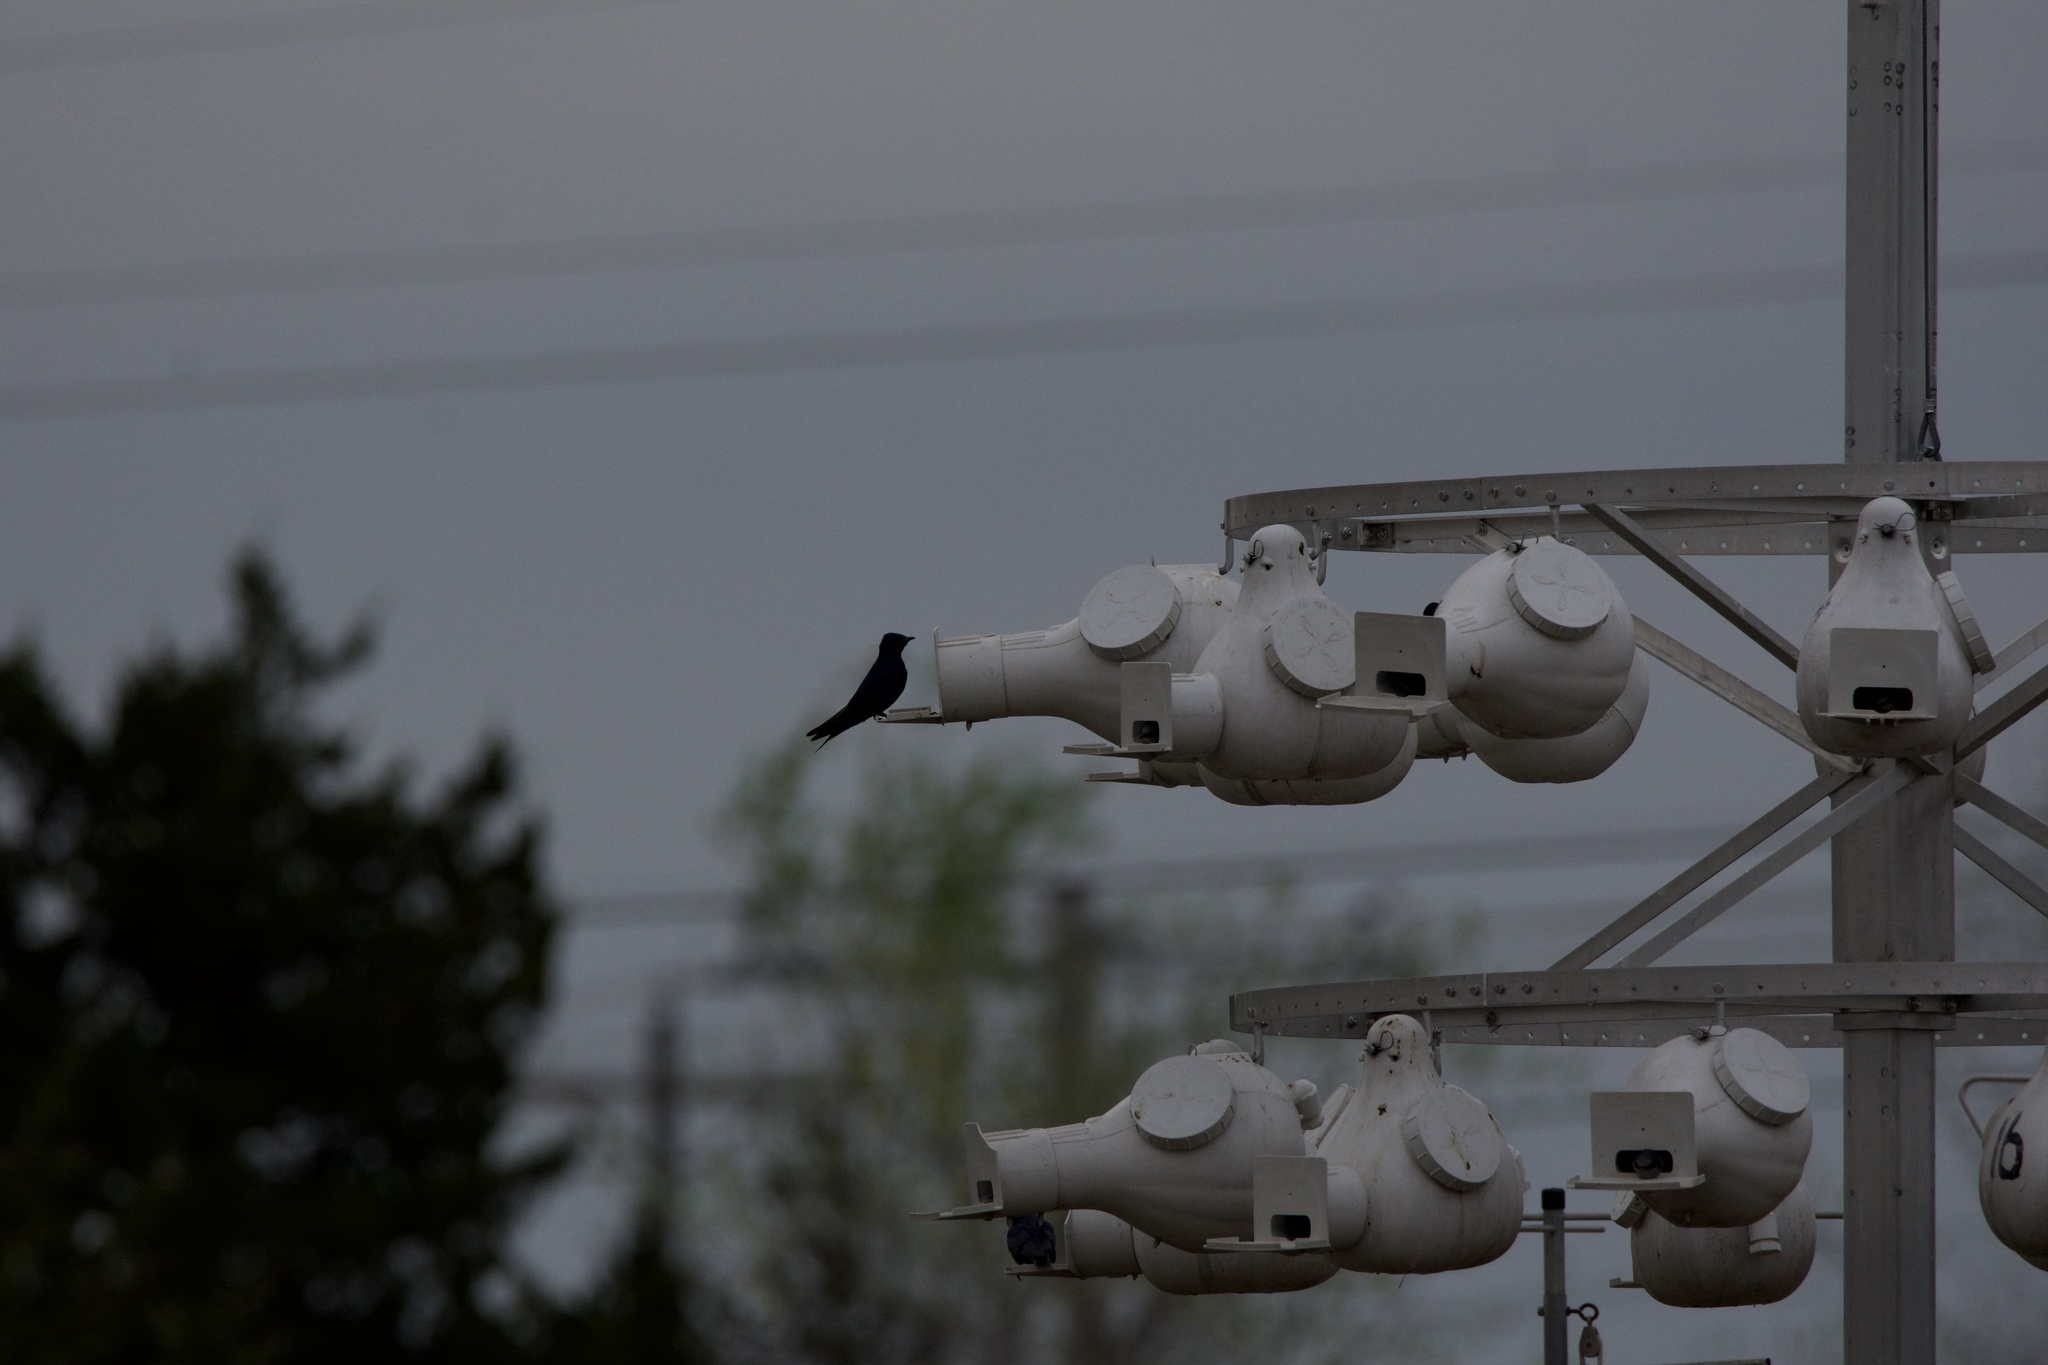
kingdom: Animalia
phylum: Chordata
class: Aves
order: Passeriformes
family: Hirundinidae
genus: Progne
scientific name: Progne subis
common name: Purple martin
